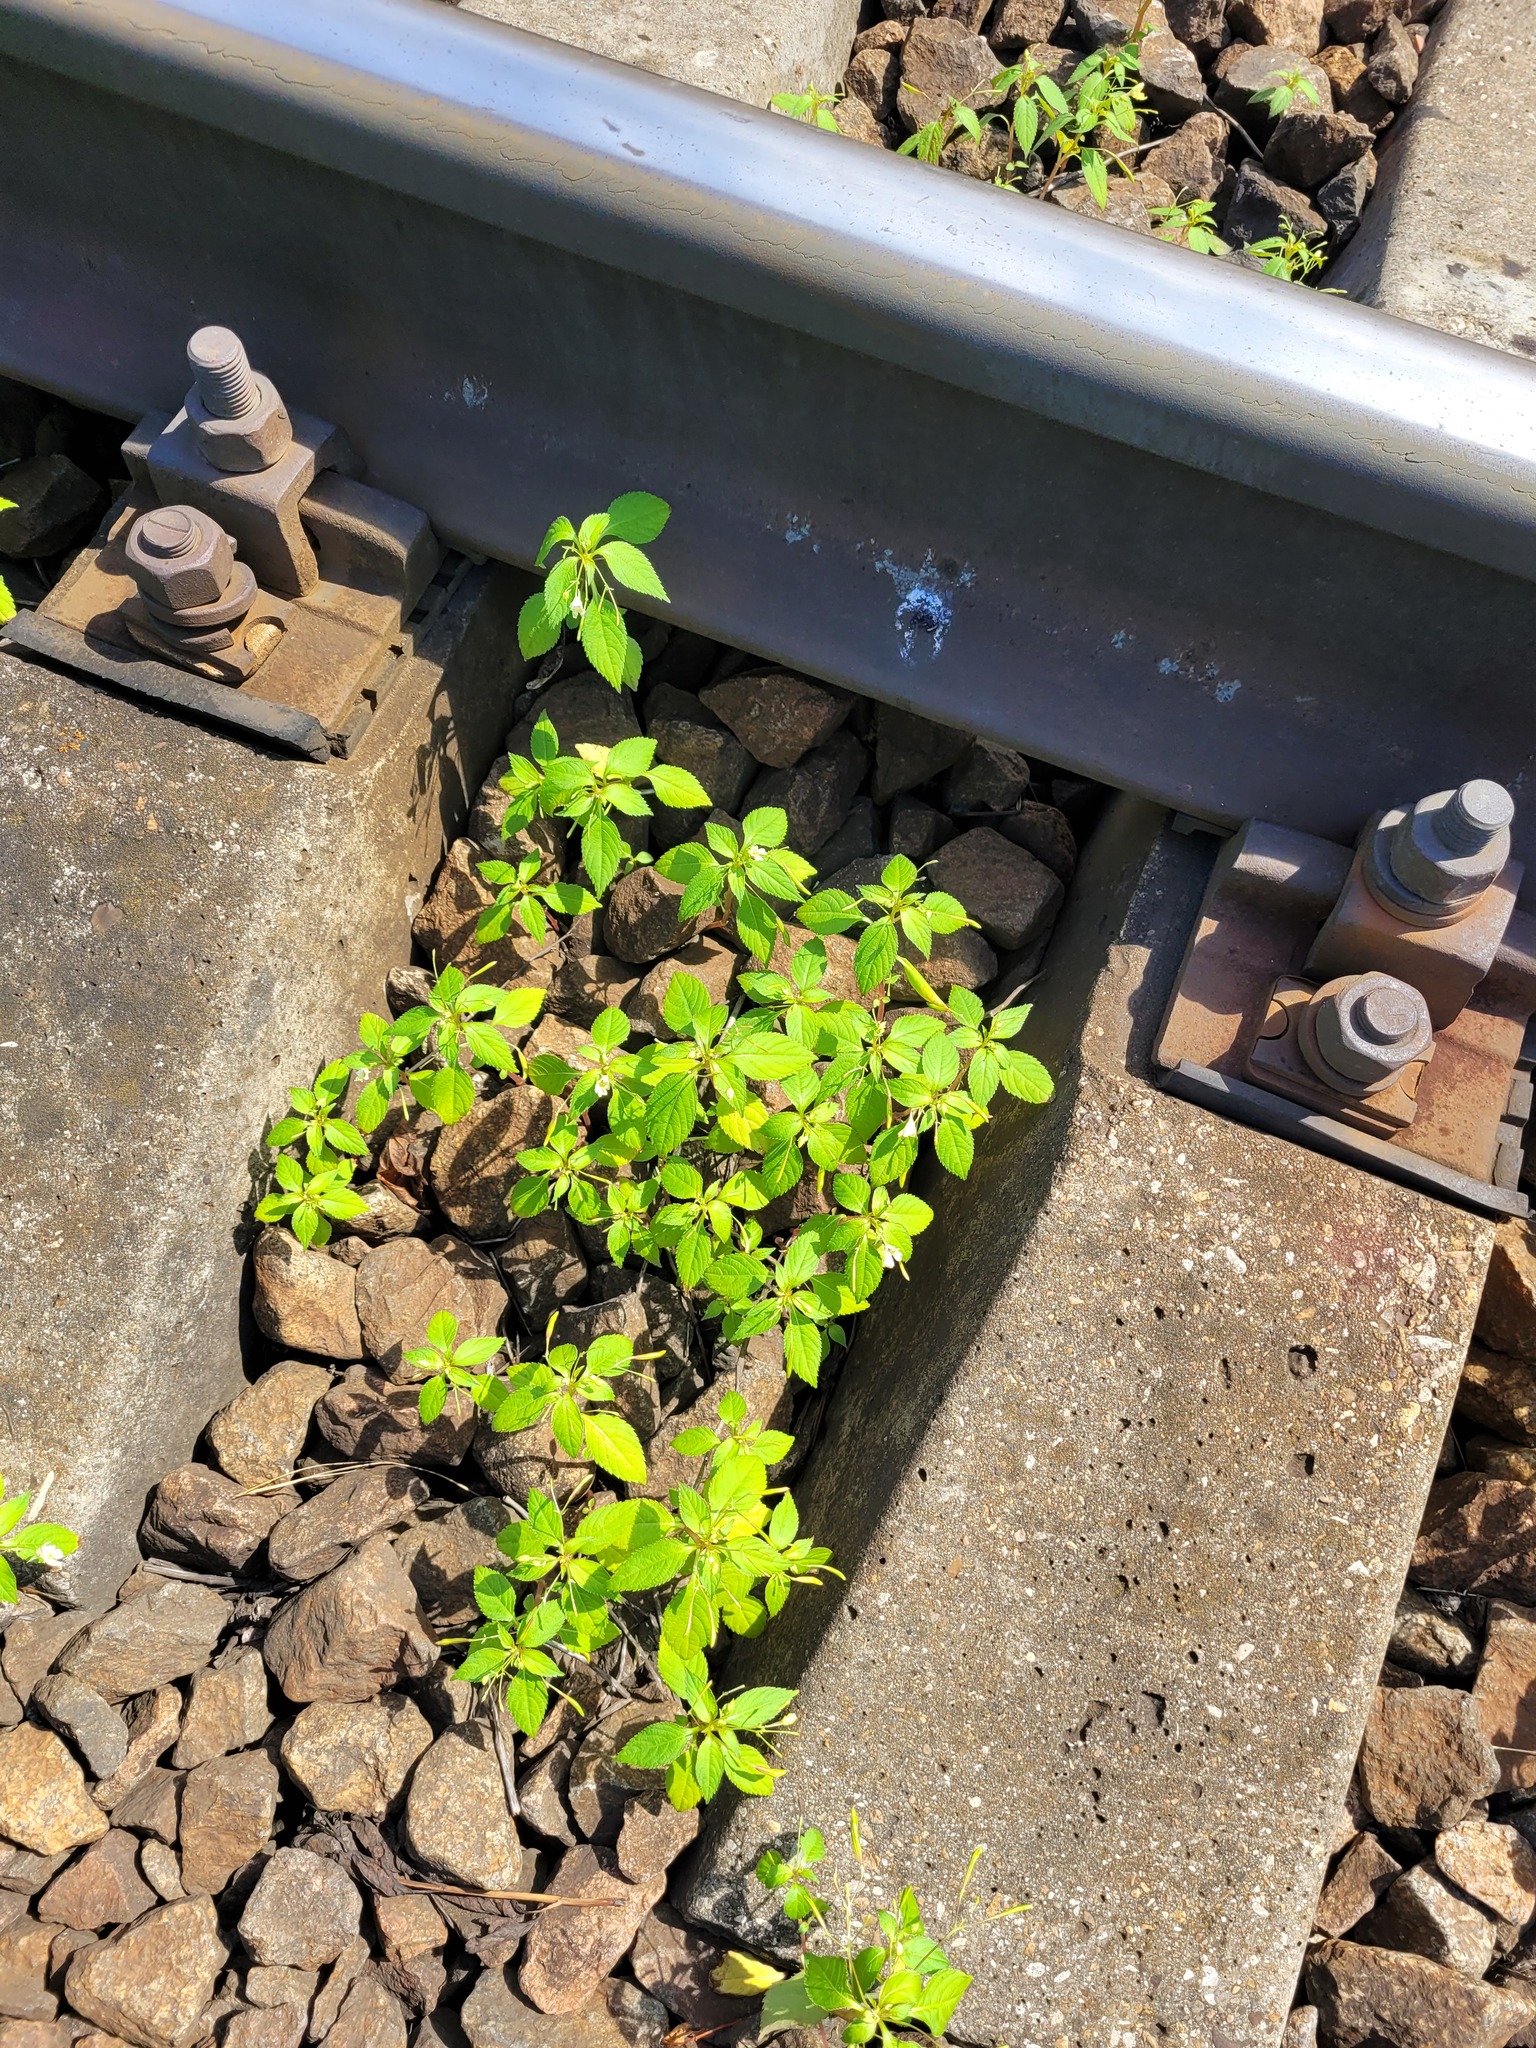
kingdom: Plantae
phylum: Tracheophyta
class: Magnoliopsida
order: Ericales
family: Balsaminaceae
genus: Impatiens
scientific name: Impatiens parviflora
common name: Small balsam
